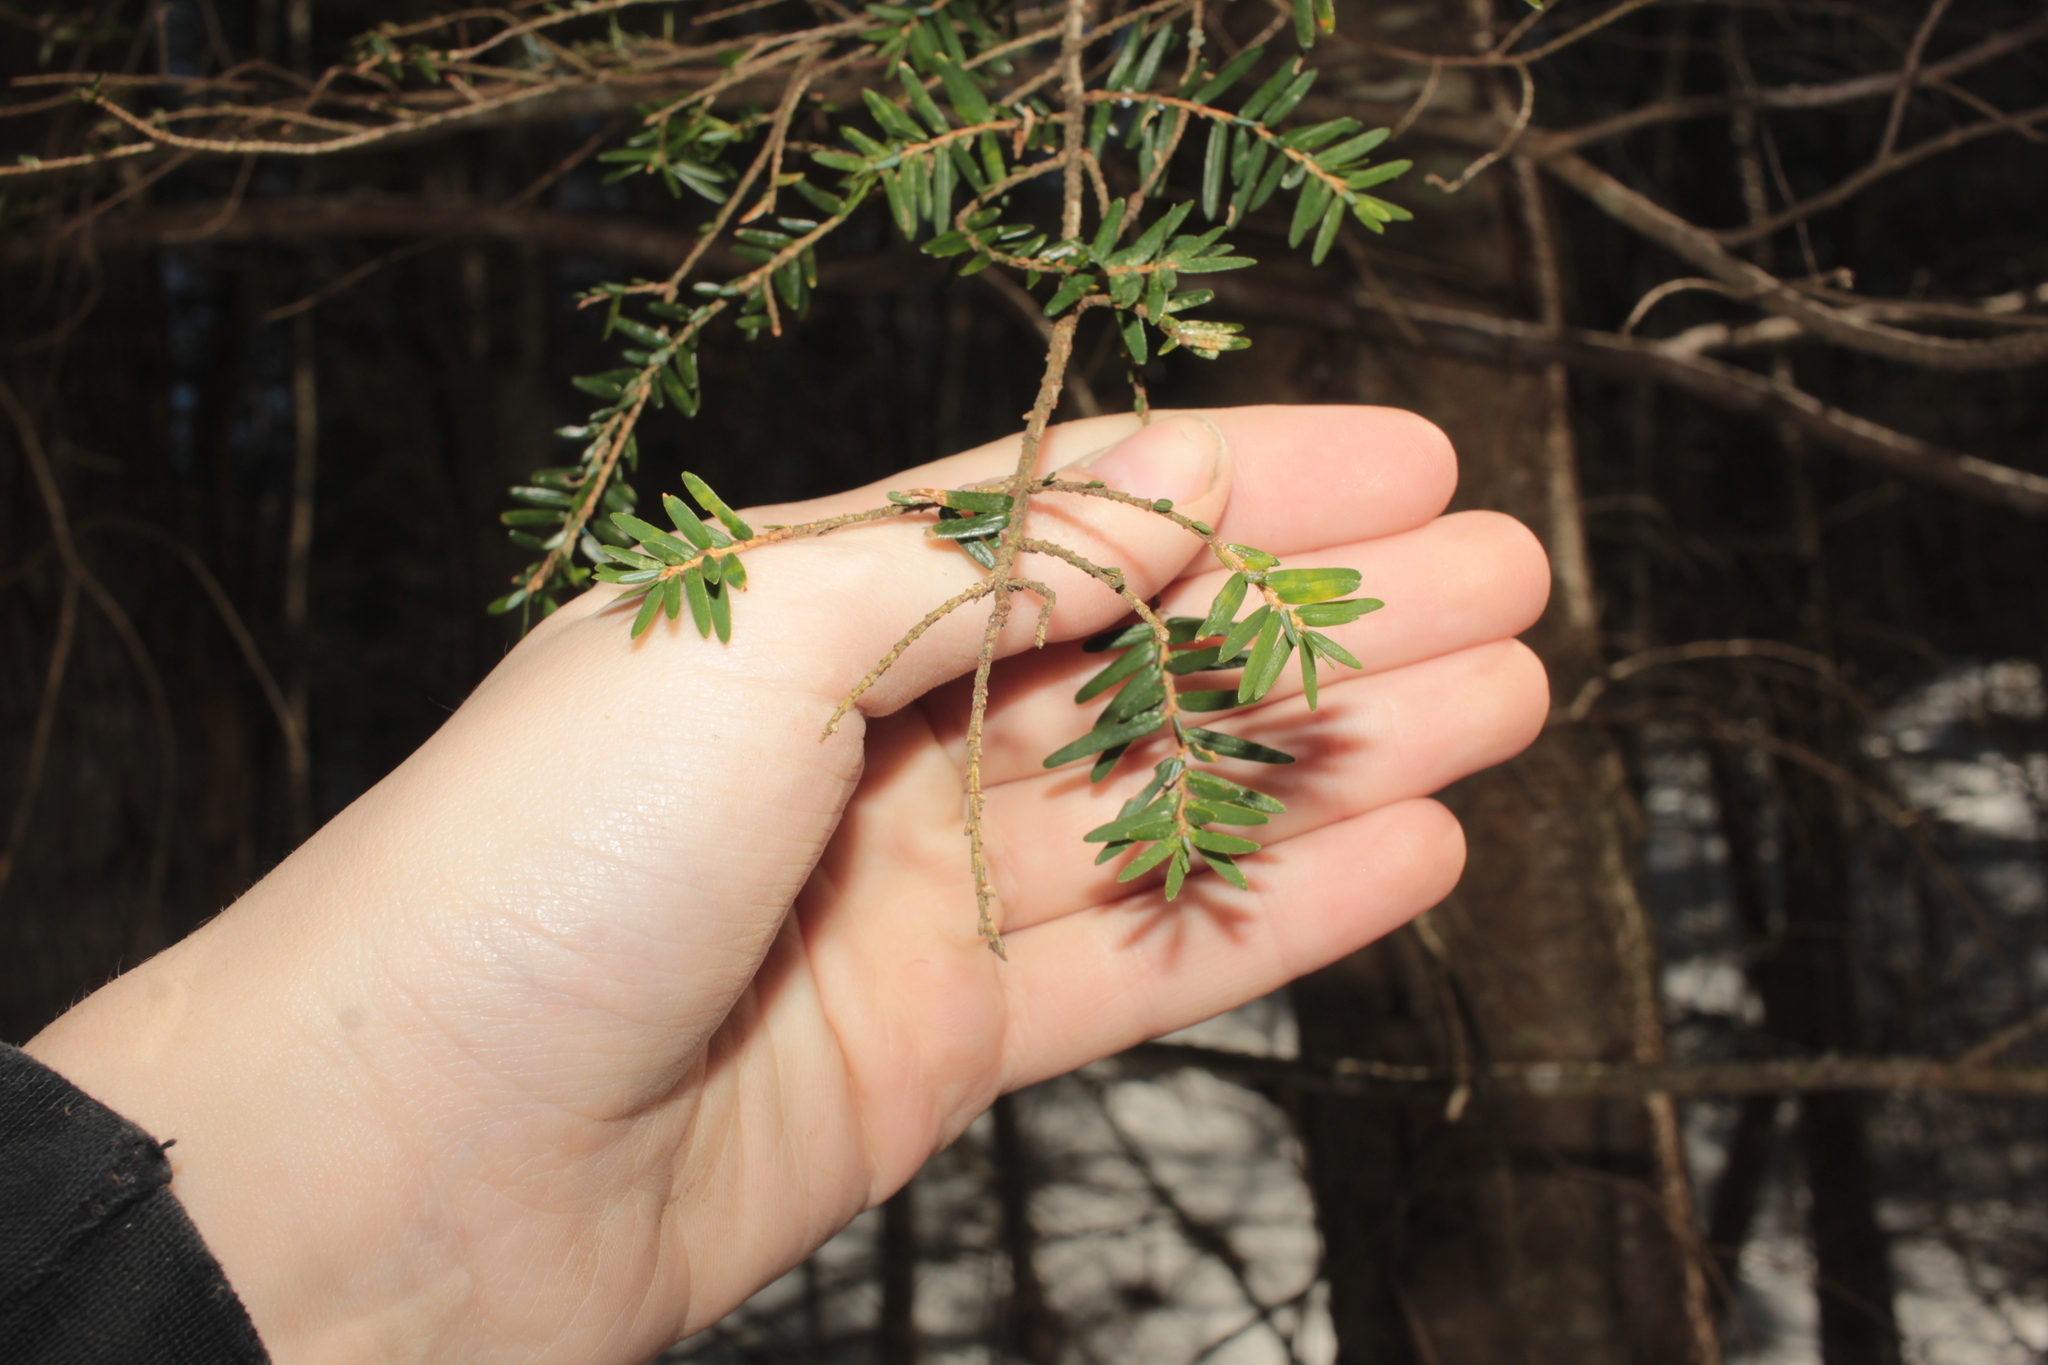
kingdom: Plantae
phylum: Tracheophyta
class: Pinopsida
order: Pinales
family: Pinaceae
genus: Tsuga
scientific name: Tsuga canadensis
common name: Eastern hemlock
